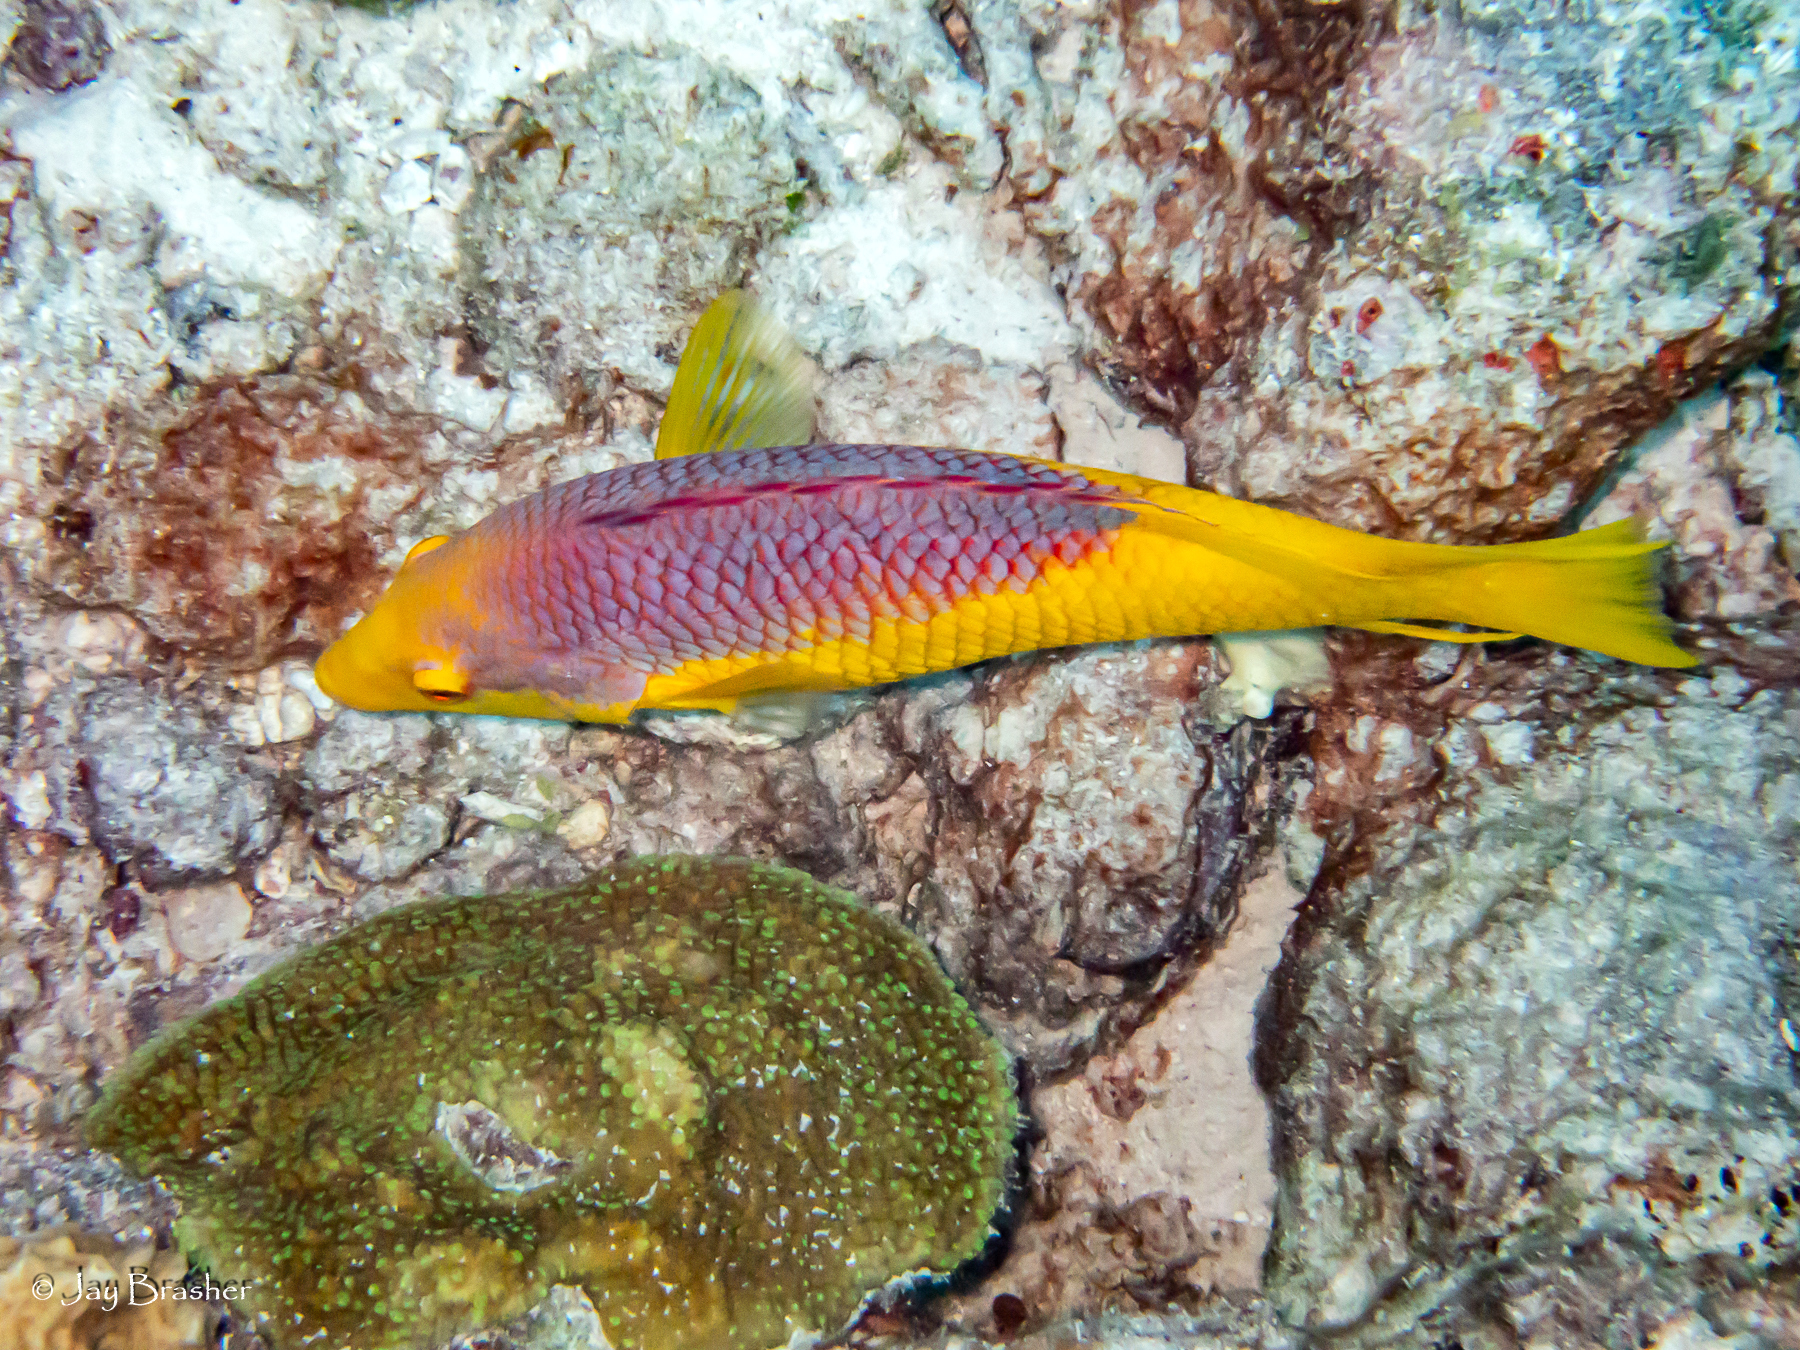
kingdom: Animalia
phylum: Chordata
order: Perciformes
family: Labridae
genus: Bodianus
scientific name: Bodianus rufus
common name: Spanish hogfish
